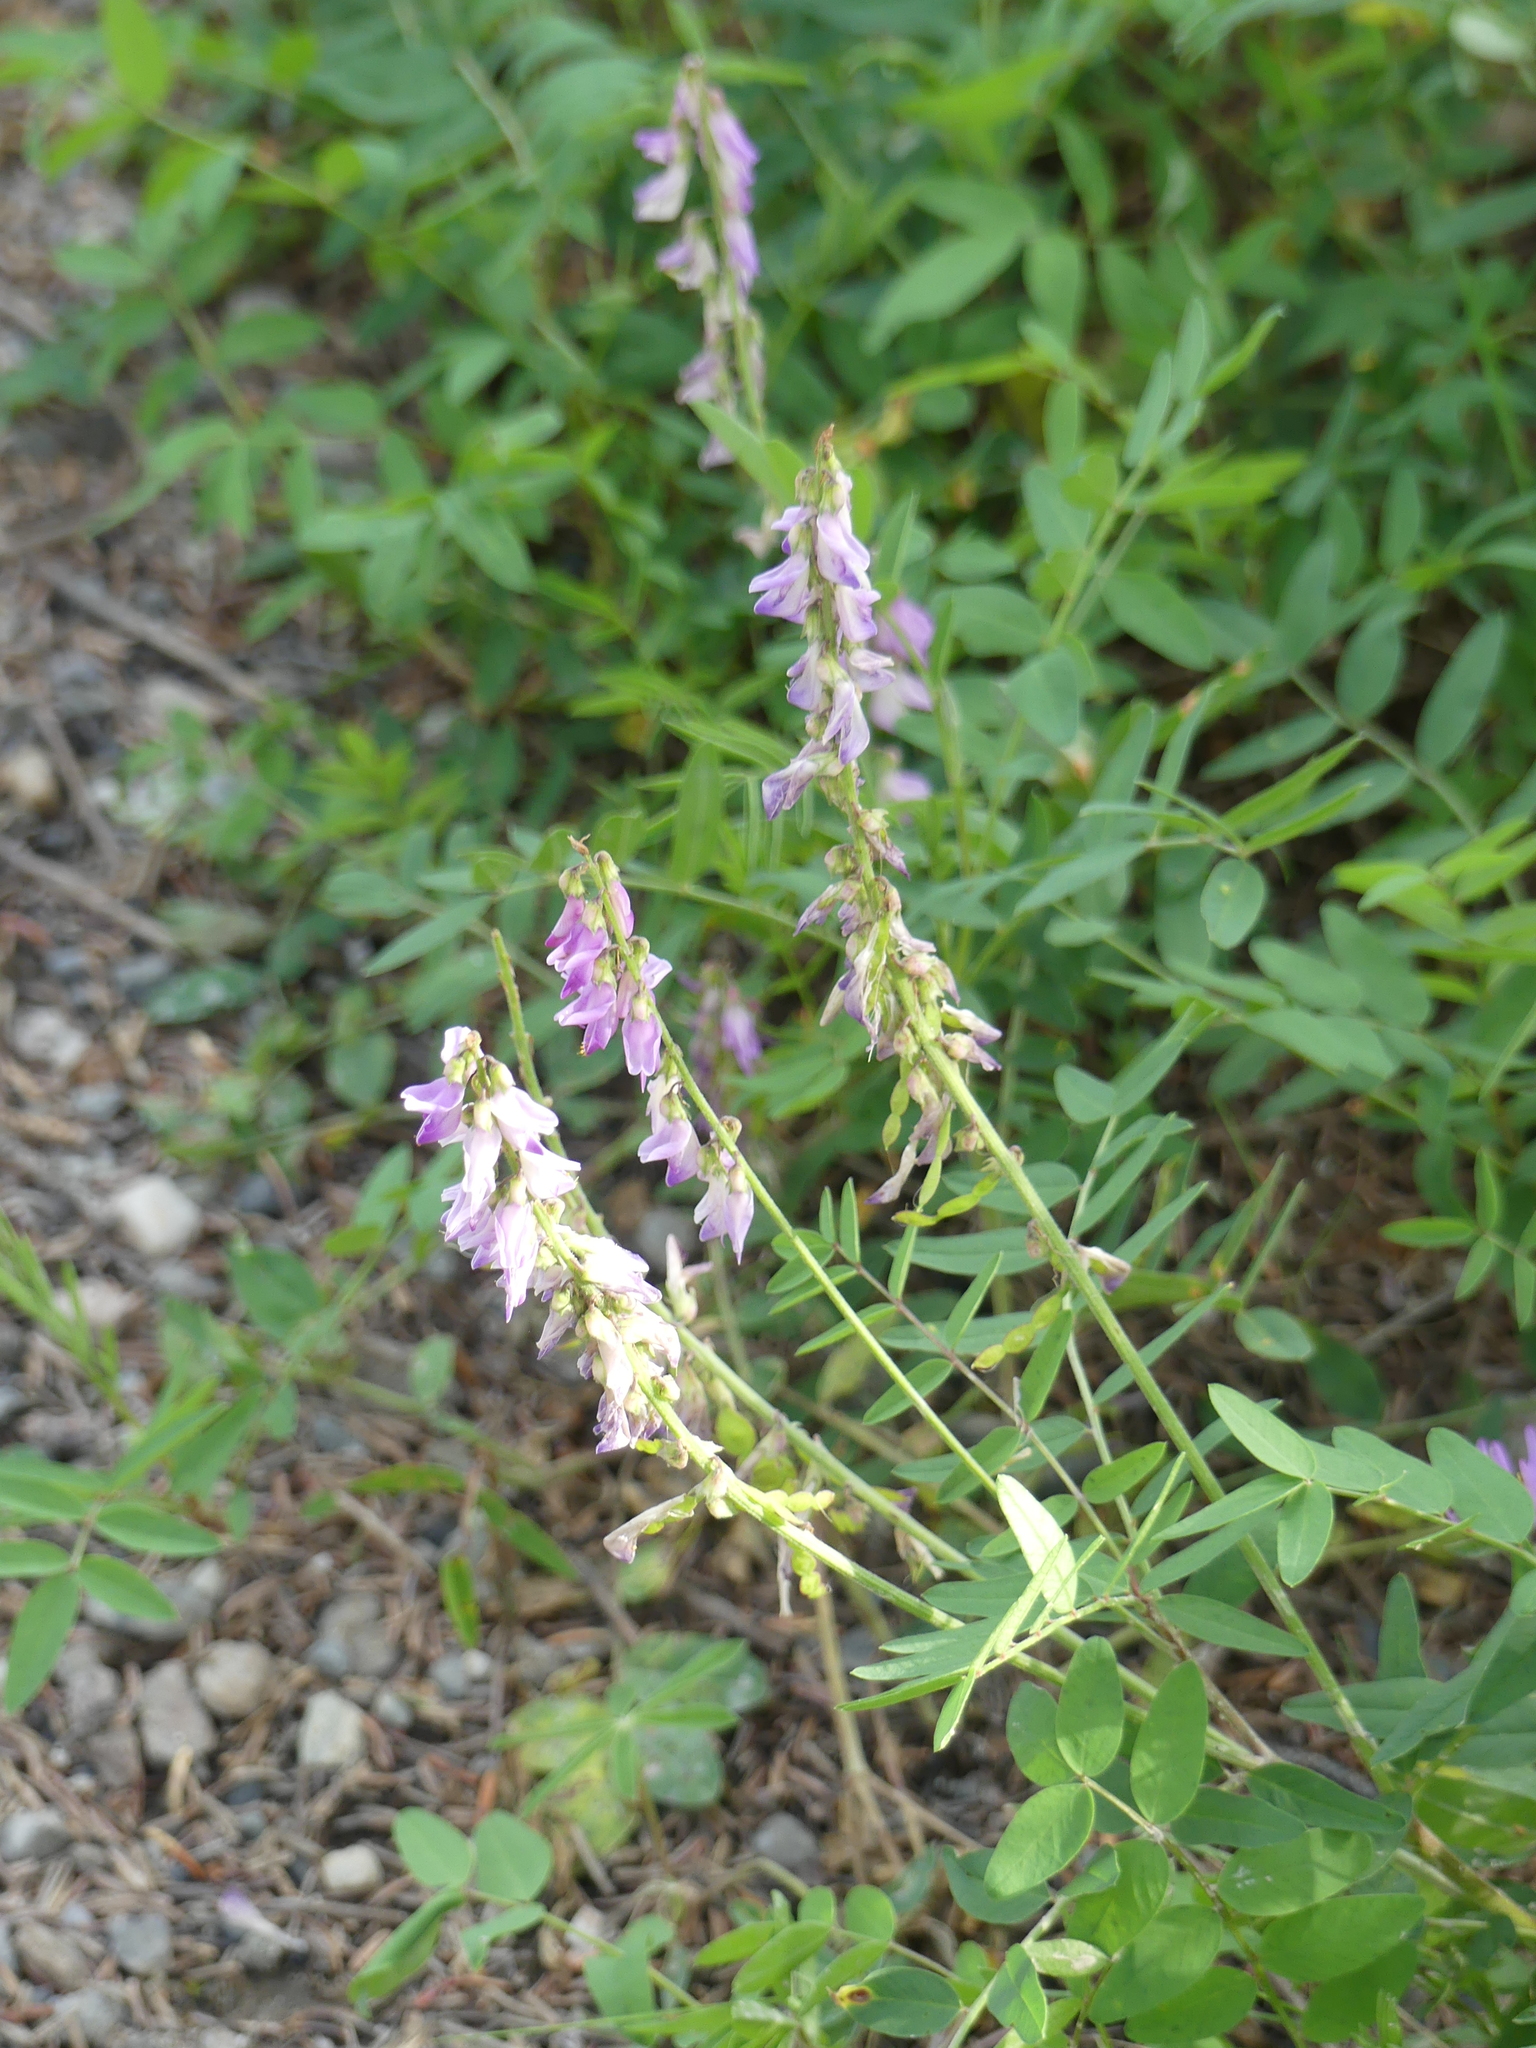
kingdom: Plantae
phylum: Tracheophyta
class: Magnoliopsida
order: Fabales
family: Fabaceae
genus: Hedysarum
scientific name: Hedysarum alpinum
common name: Alpine sweet-vetch
